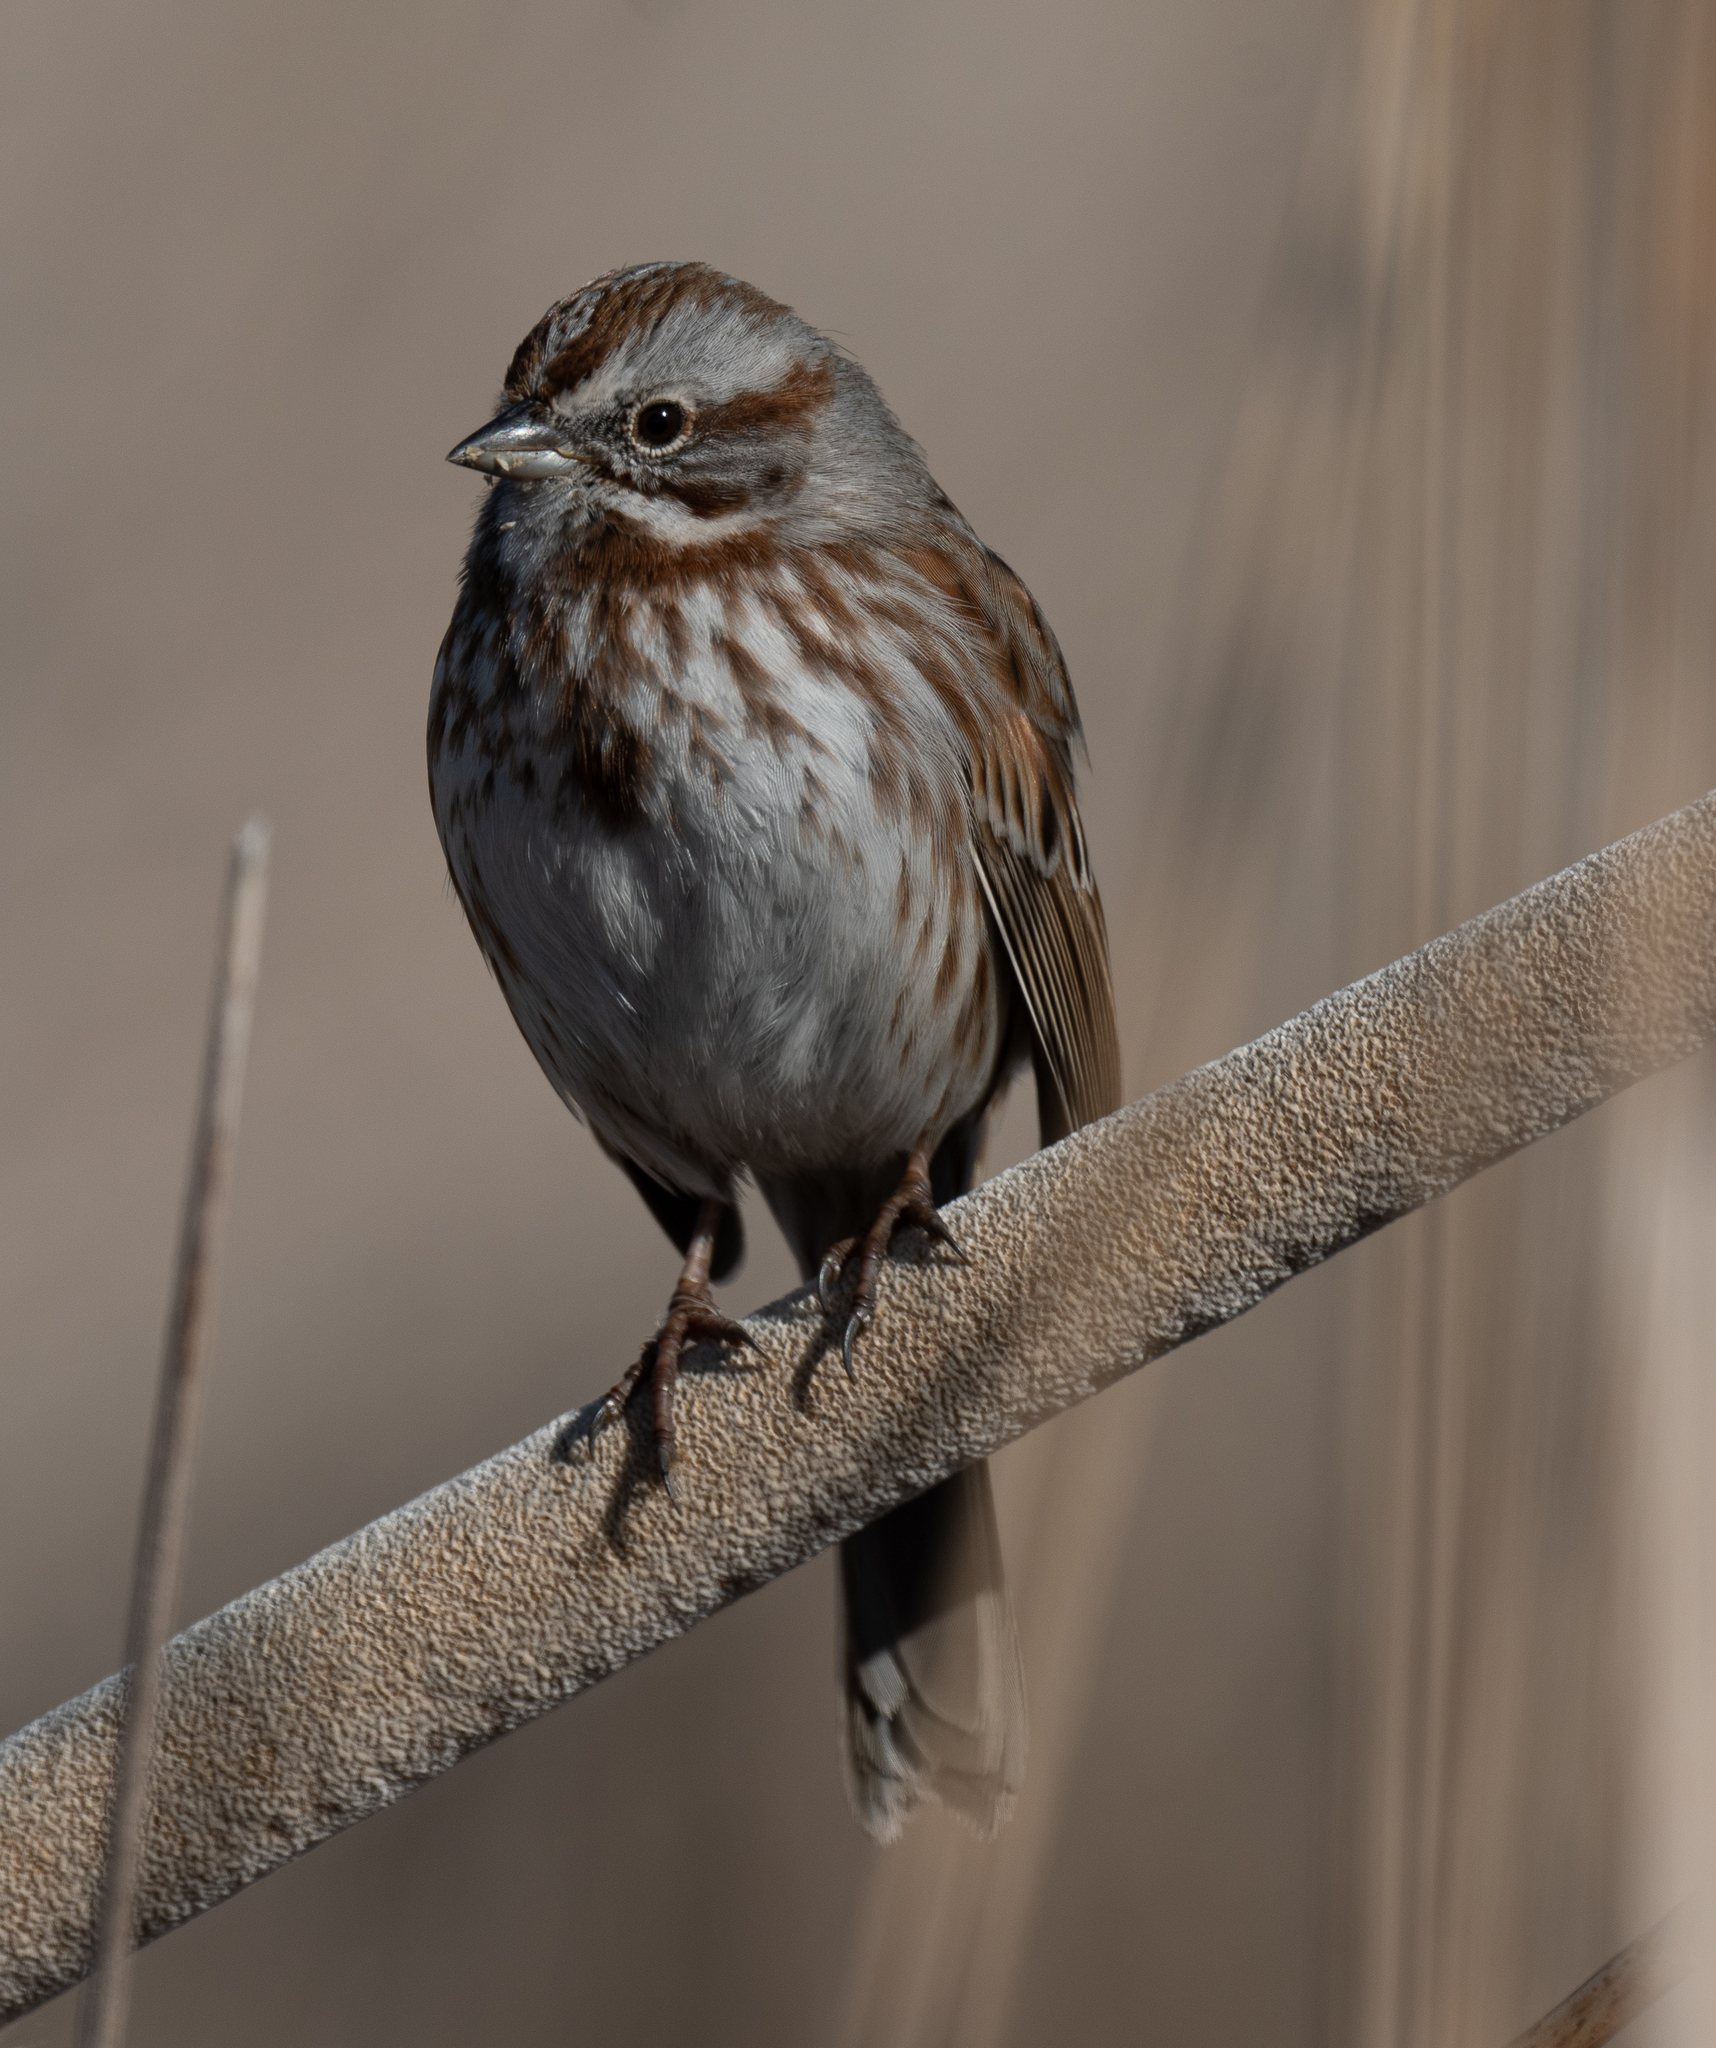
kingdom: Animalia
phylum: Chordata
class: Aves
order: Passeriformes
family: Passerellidae
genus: Melospiza
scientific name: Melospiza melodia
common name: Song sparrow
